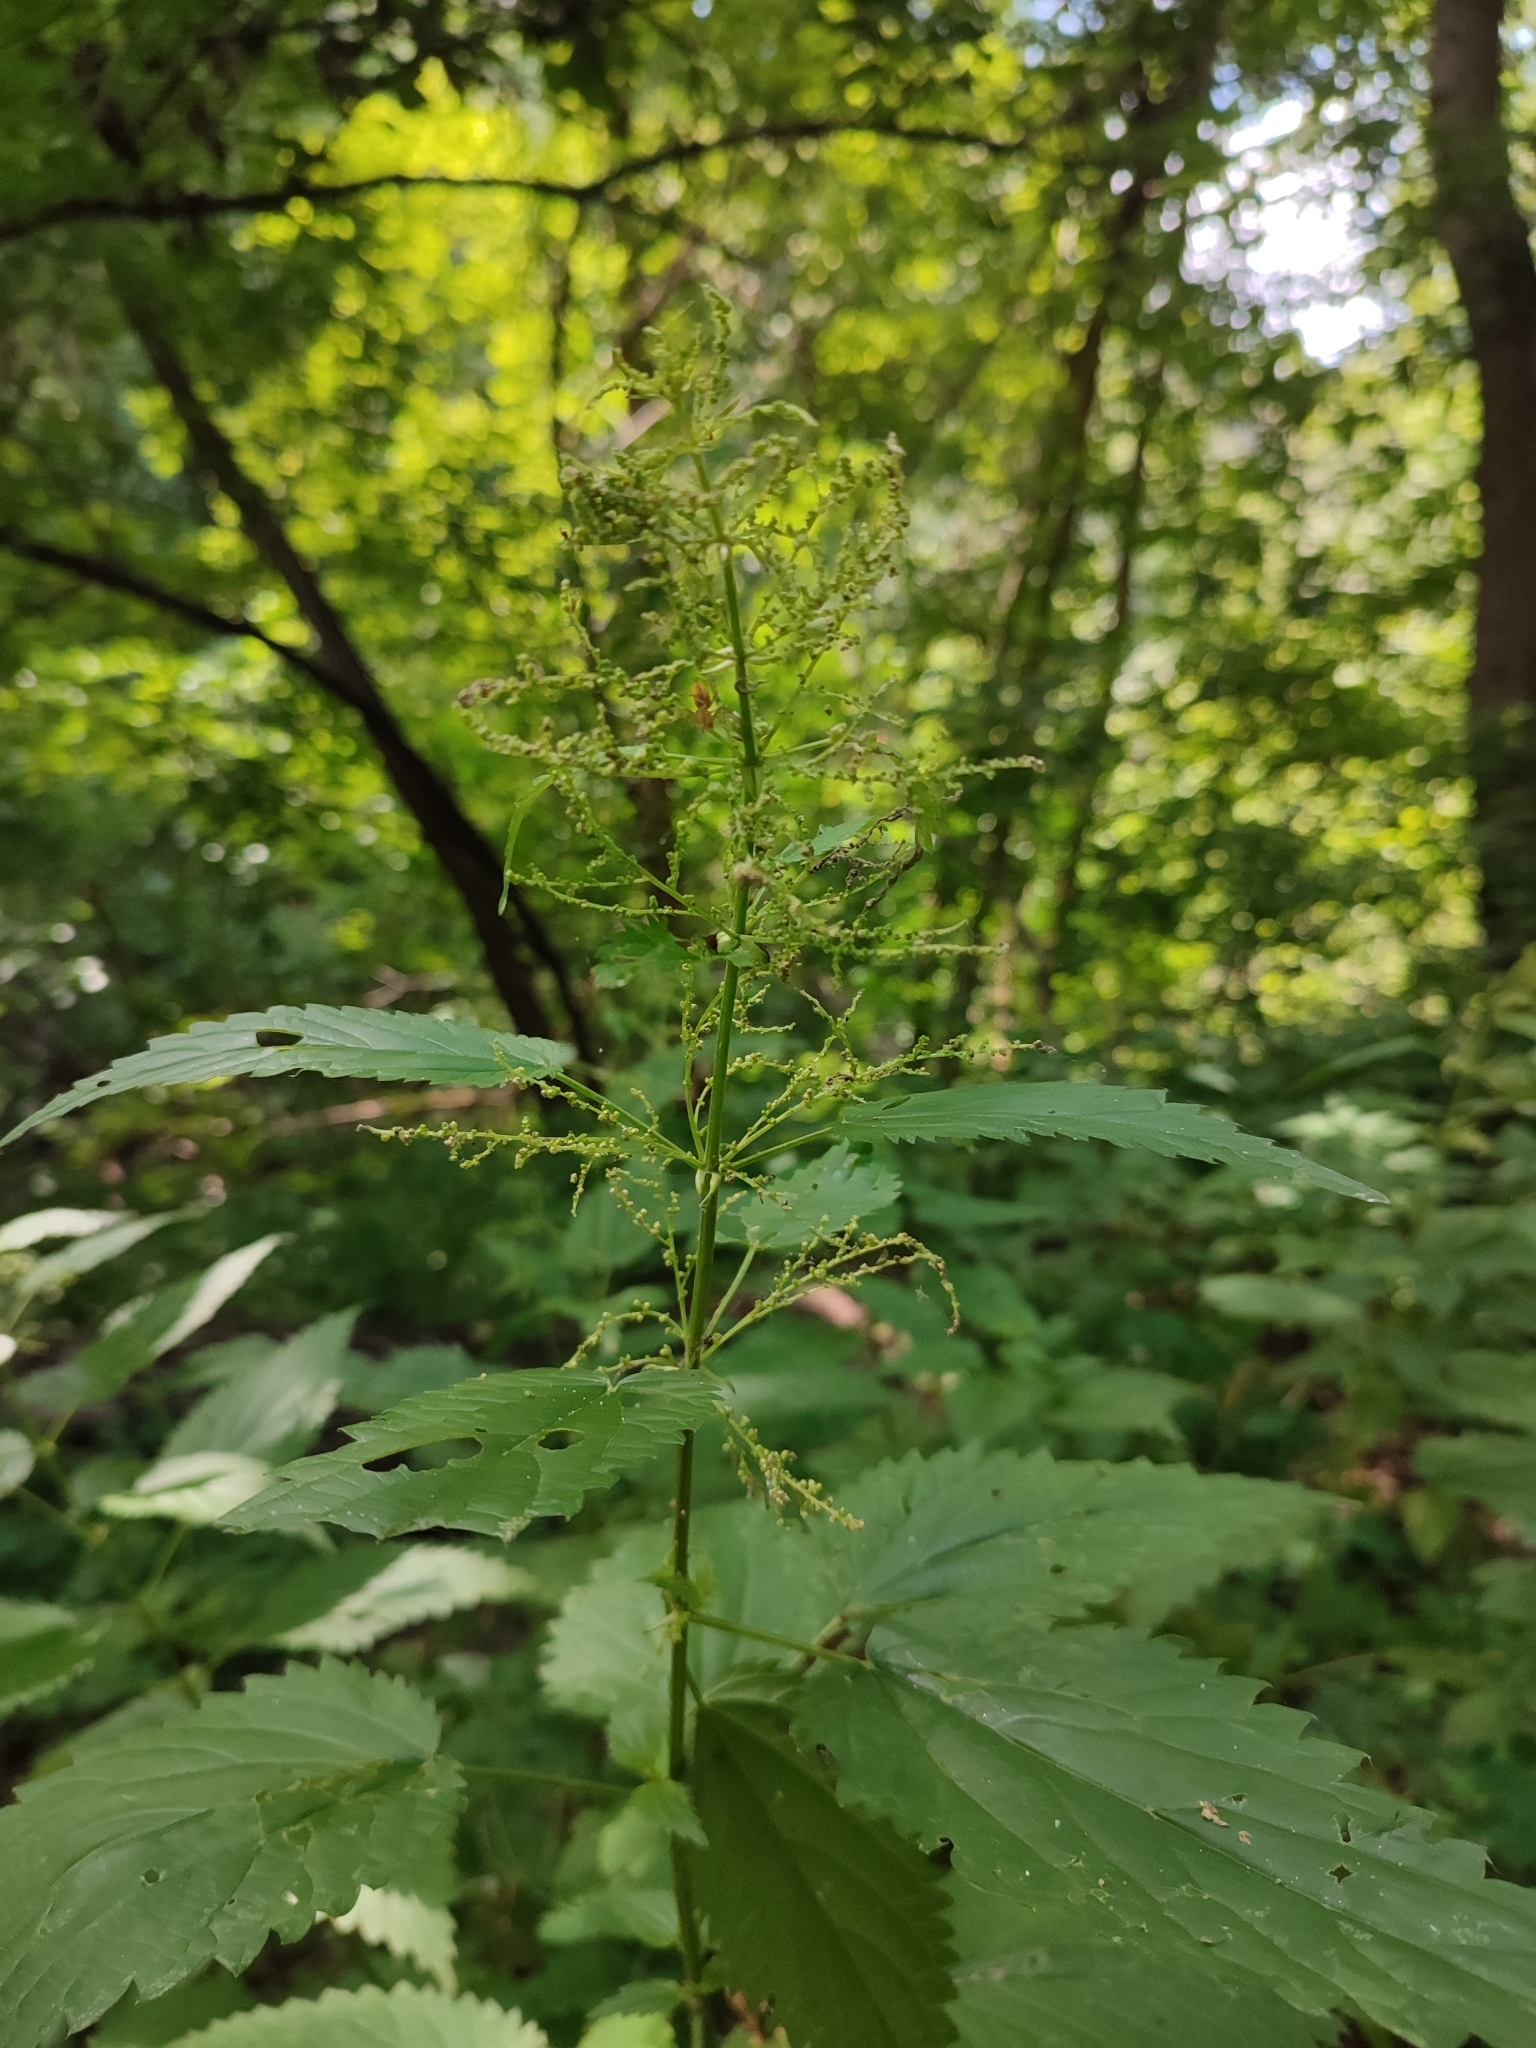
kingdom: Plantae
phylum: Tracheophyta
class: Magnoliopsida
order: Rosales
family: Urticaceae
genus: Urtica
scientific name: Urtica dioica
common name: Common nettle
